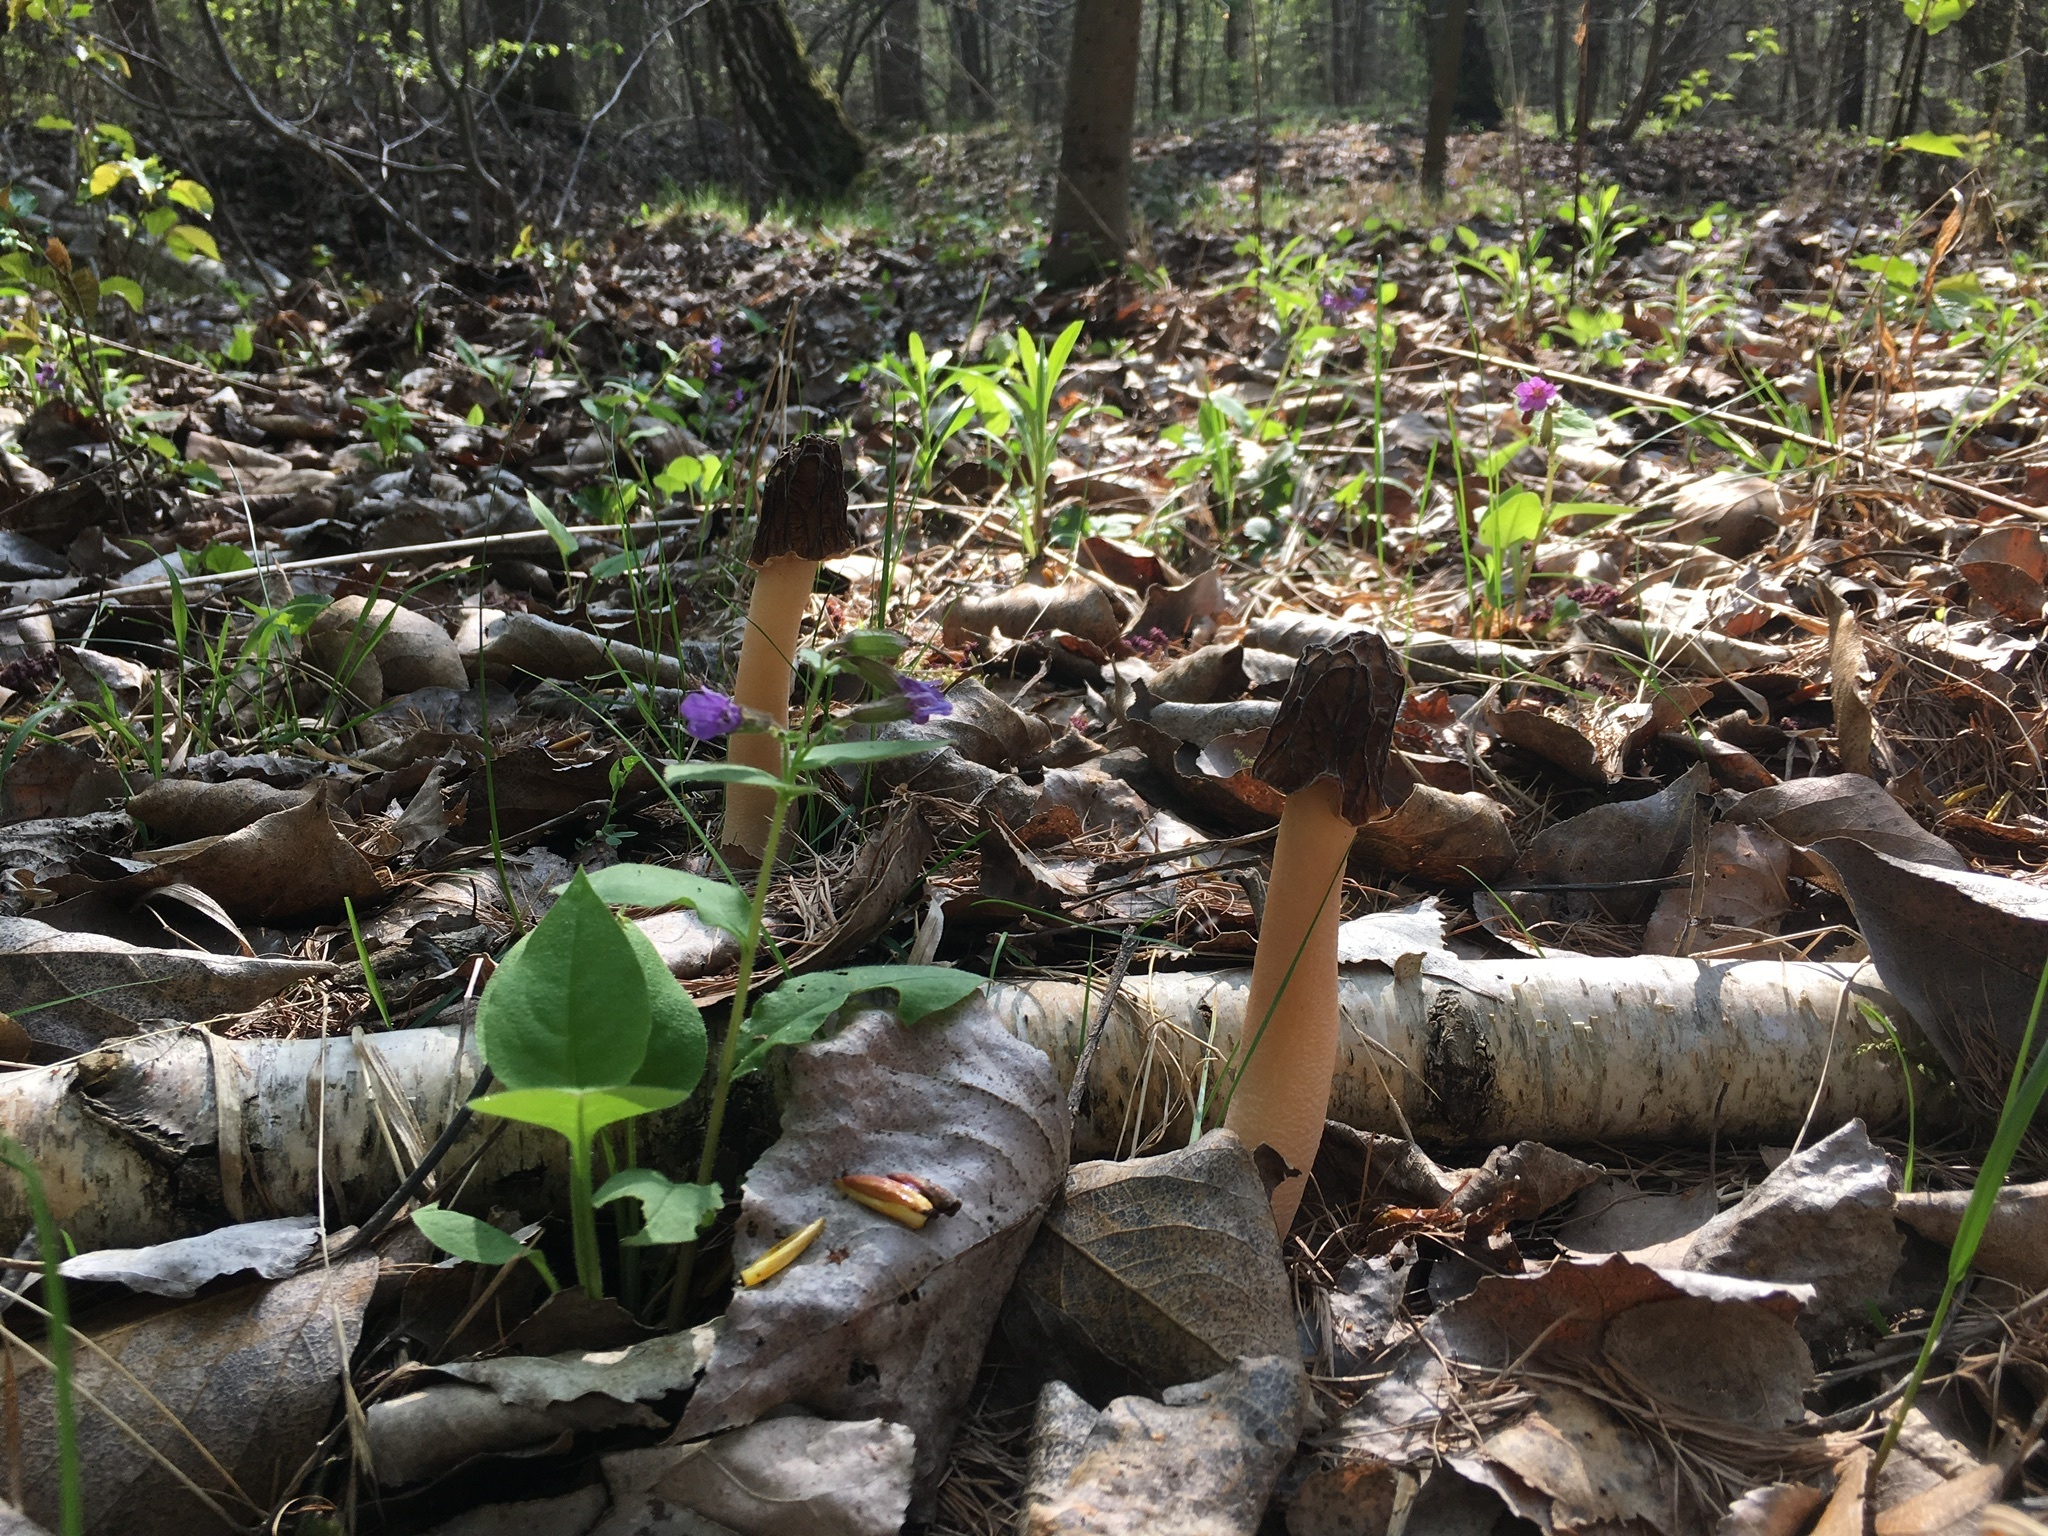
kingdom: Fungi
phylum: Ascomycota
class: Pezizomycetes
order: Pezizales
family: Morchellaceae
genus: Verpa
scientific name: Verpa bohemica
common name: Wrinkled thimble morel
